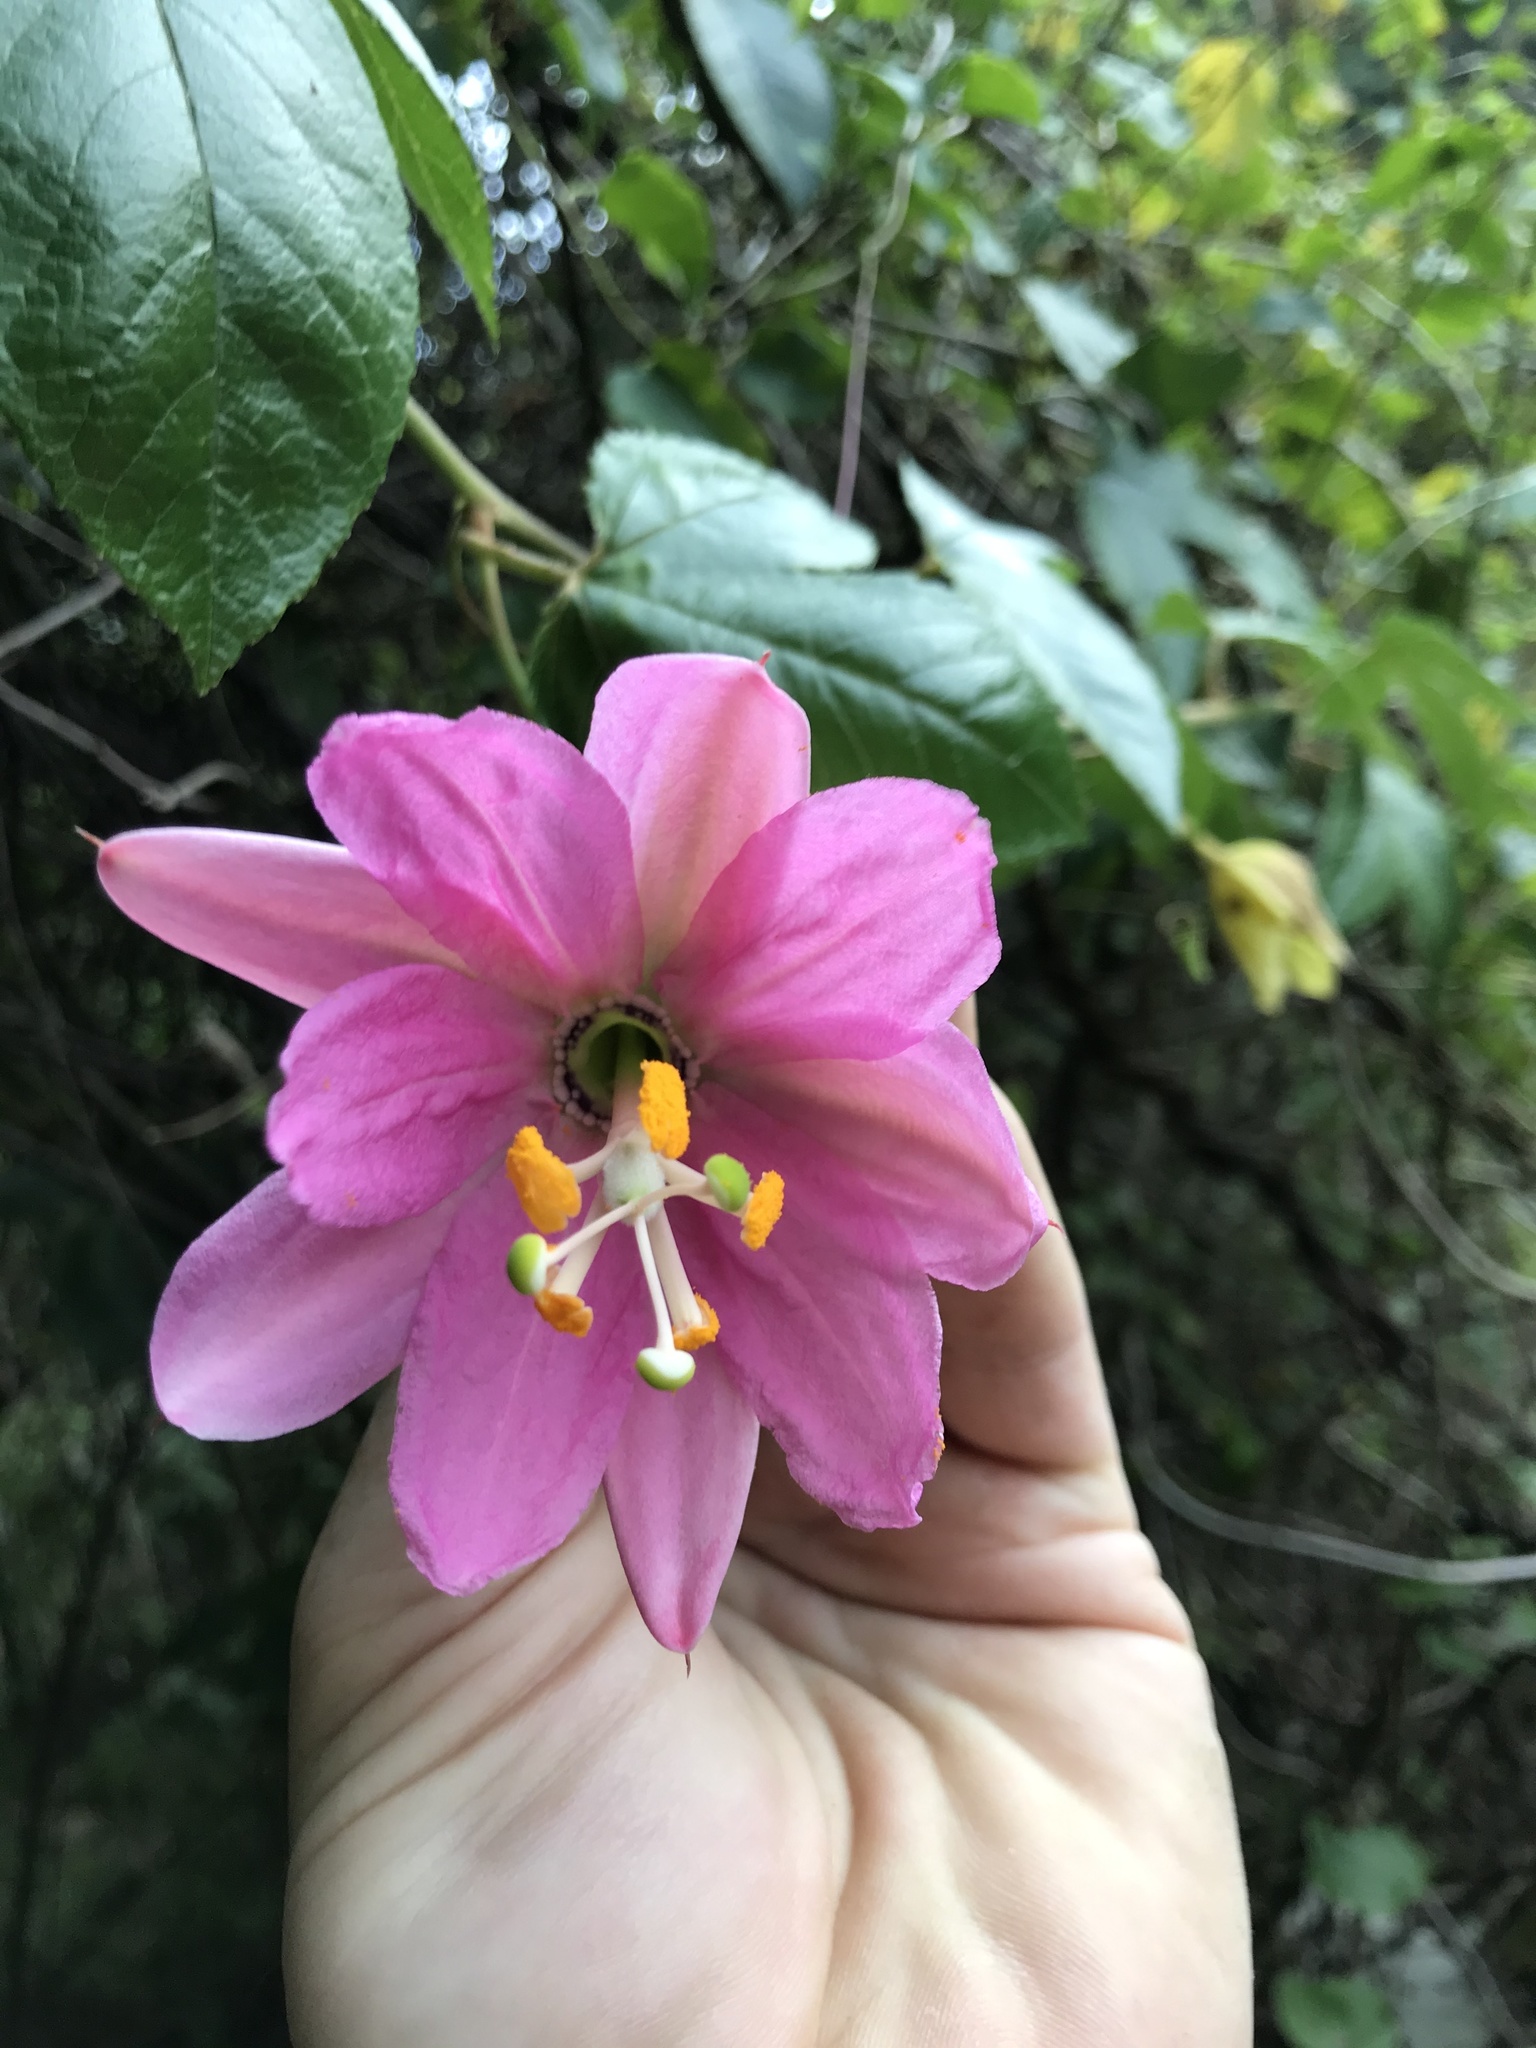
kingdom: Plantae
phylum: Tracheophyta
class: Magnoliopsida
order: Malpighiales
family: Passifloraceae
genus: Passiflora
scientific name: Passiflora tarminiana
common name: Banana poka
